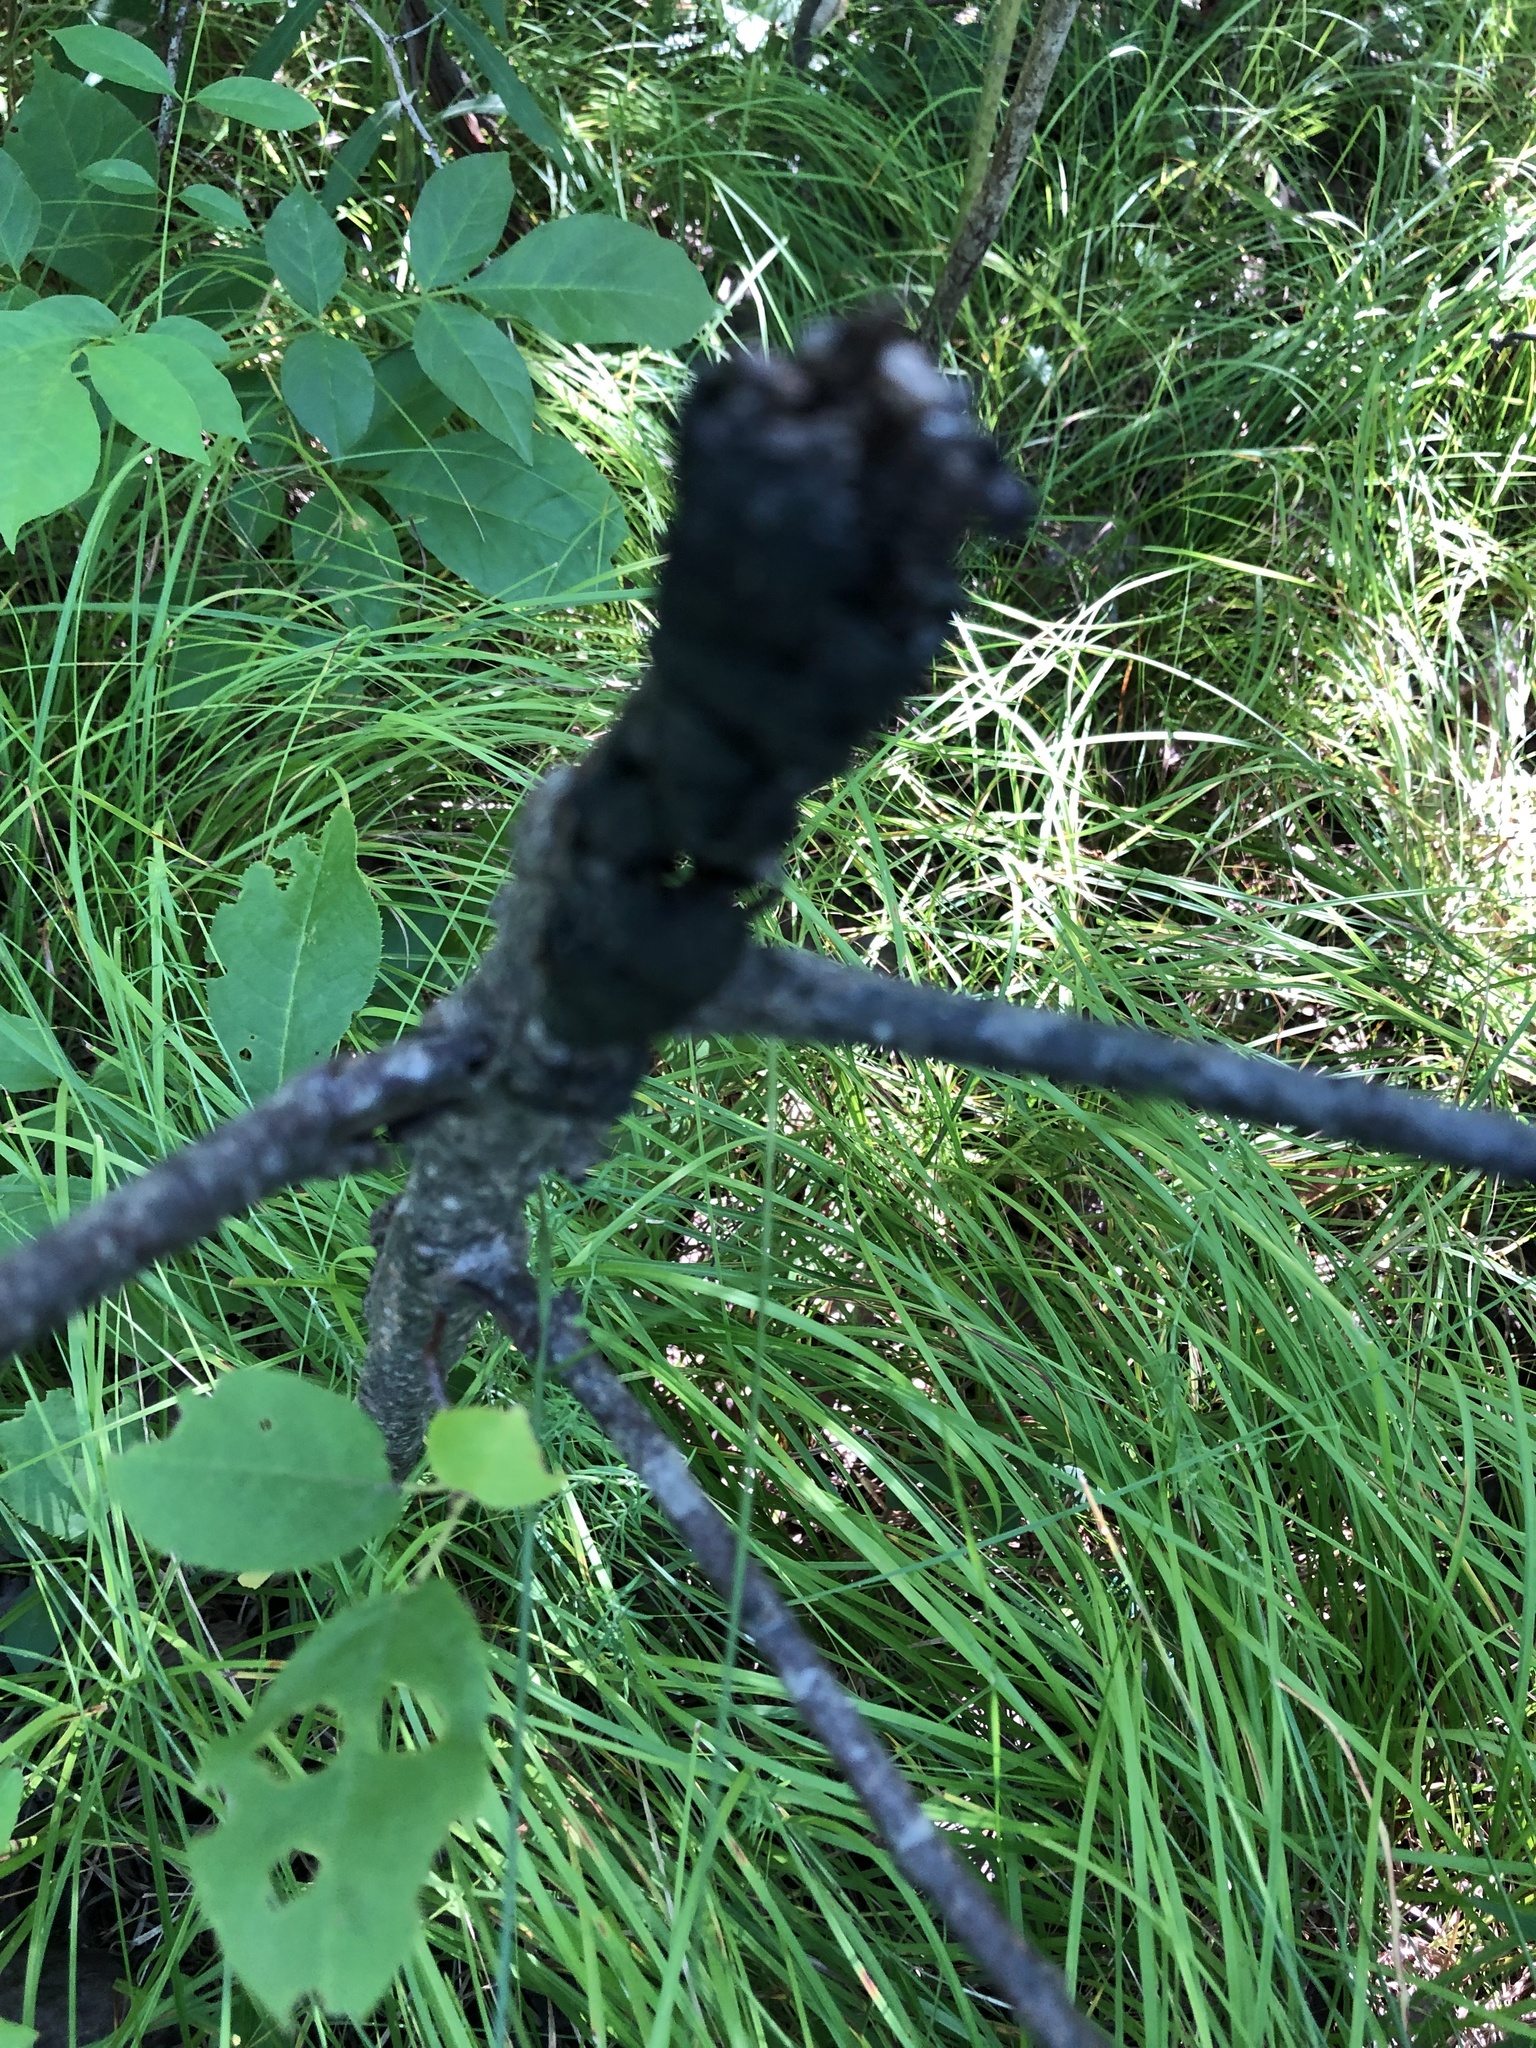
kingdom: Fungi
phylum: Ascomycota
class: Dothideomycetes
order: Venturiales
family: Venturiaceae
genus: Apiosporina
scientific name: Apiosporina morbosa
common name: Black knot
